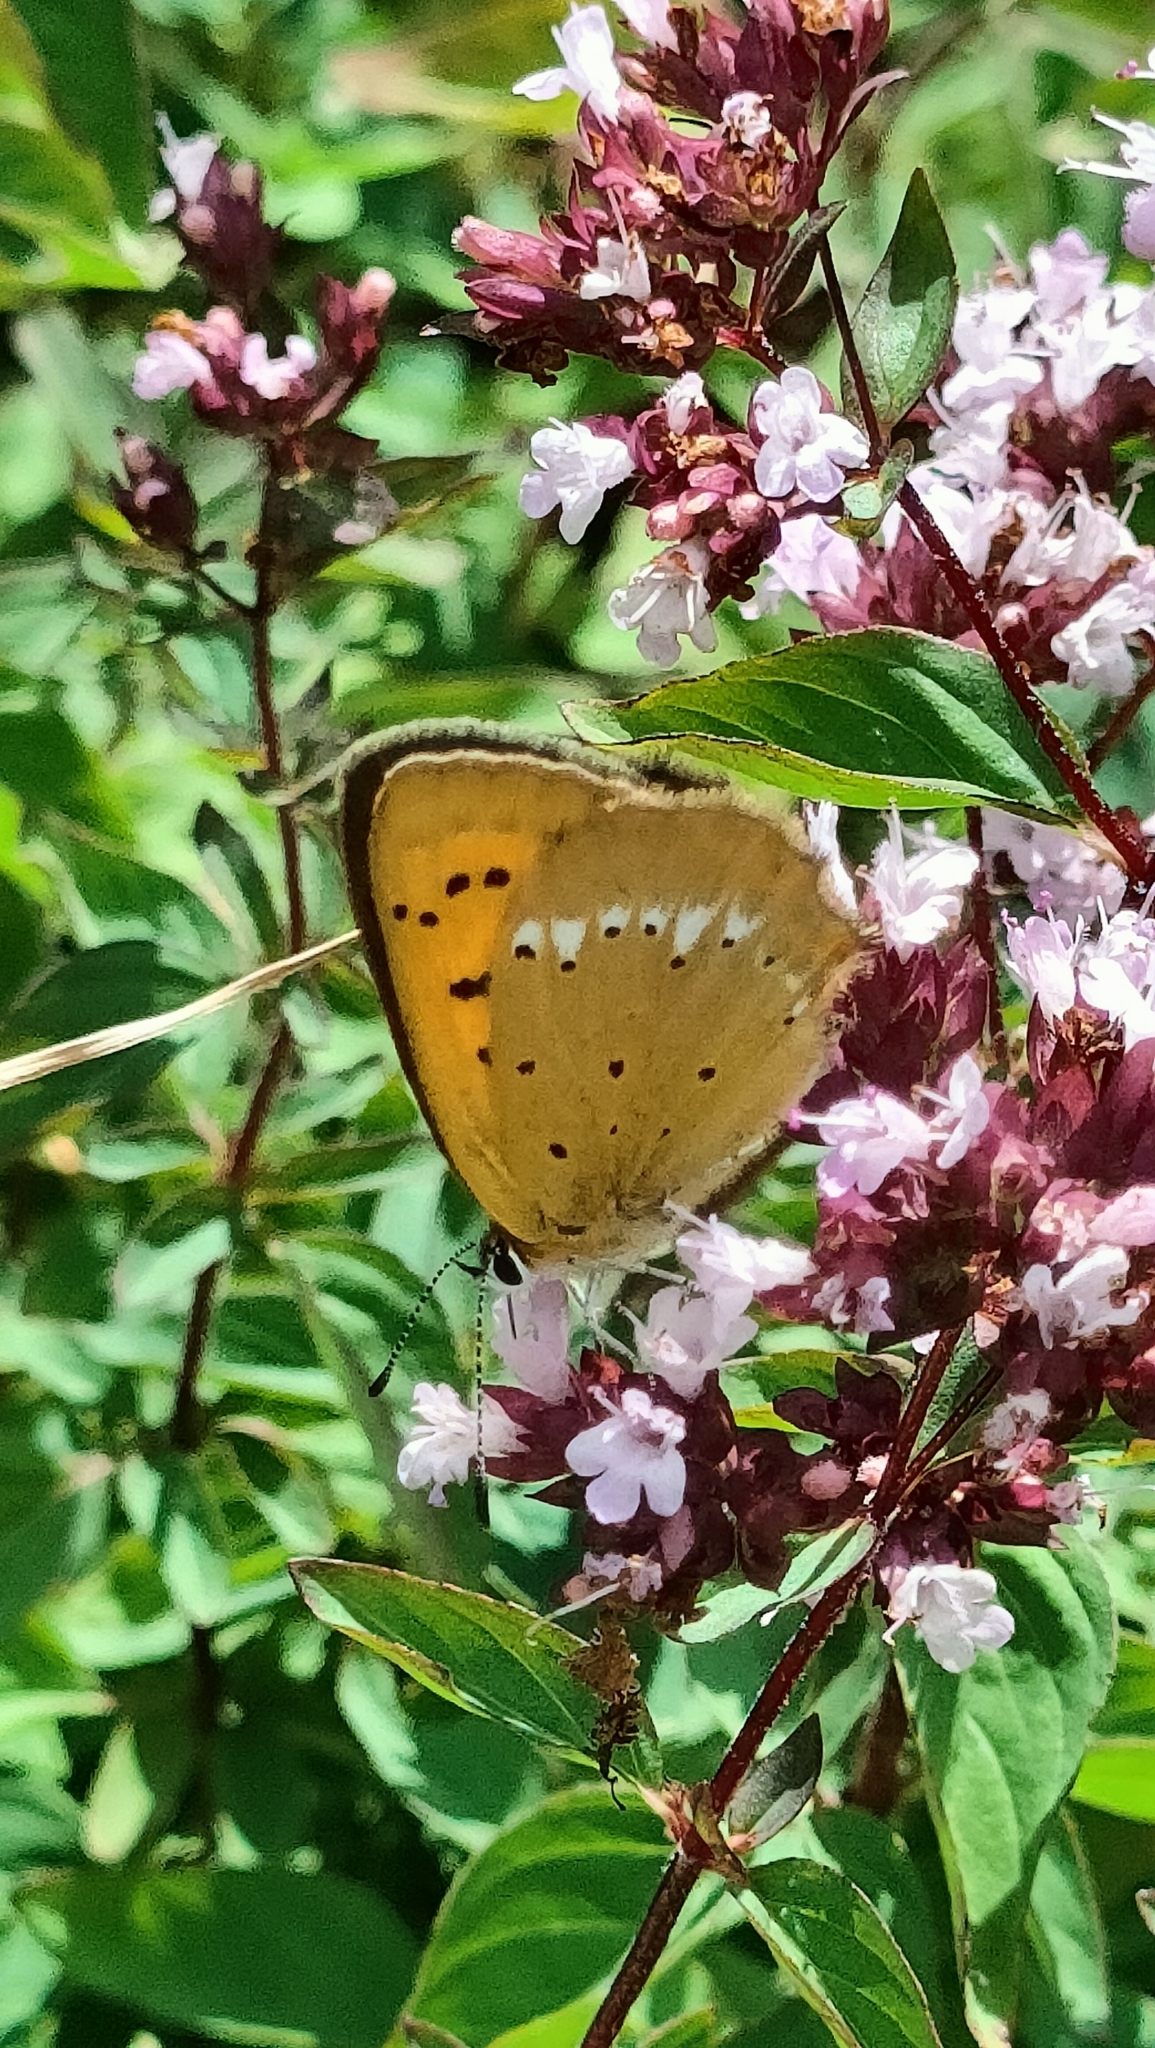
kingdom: Animalia
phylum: Arthropoda
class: Insecta
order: Lepidoptera
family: Lycaenidae
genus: Lycaena
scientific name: Lycaena virgaureae
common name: Scarce copper
